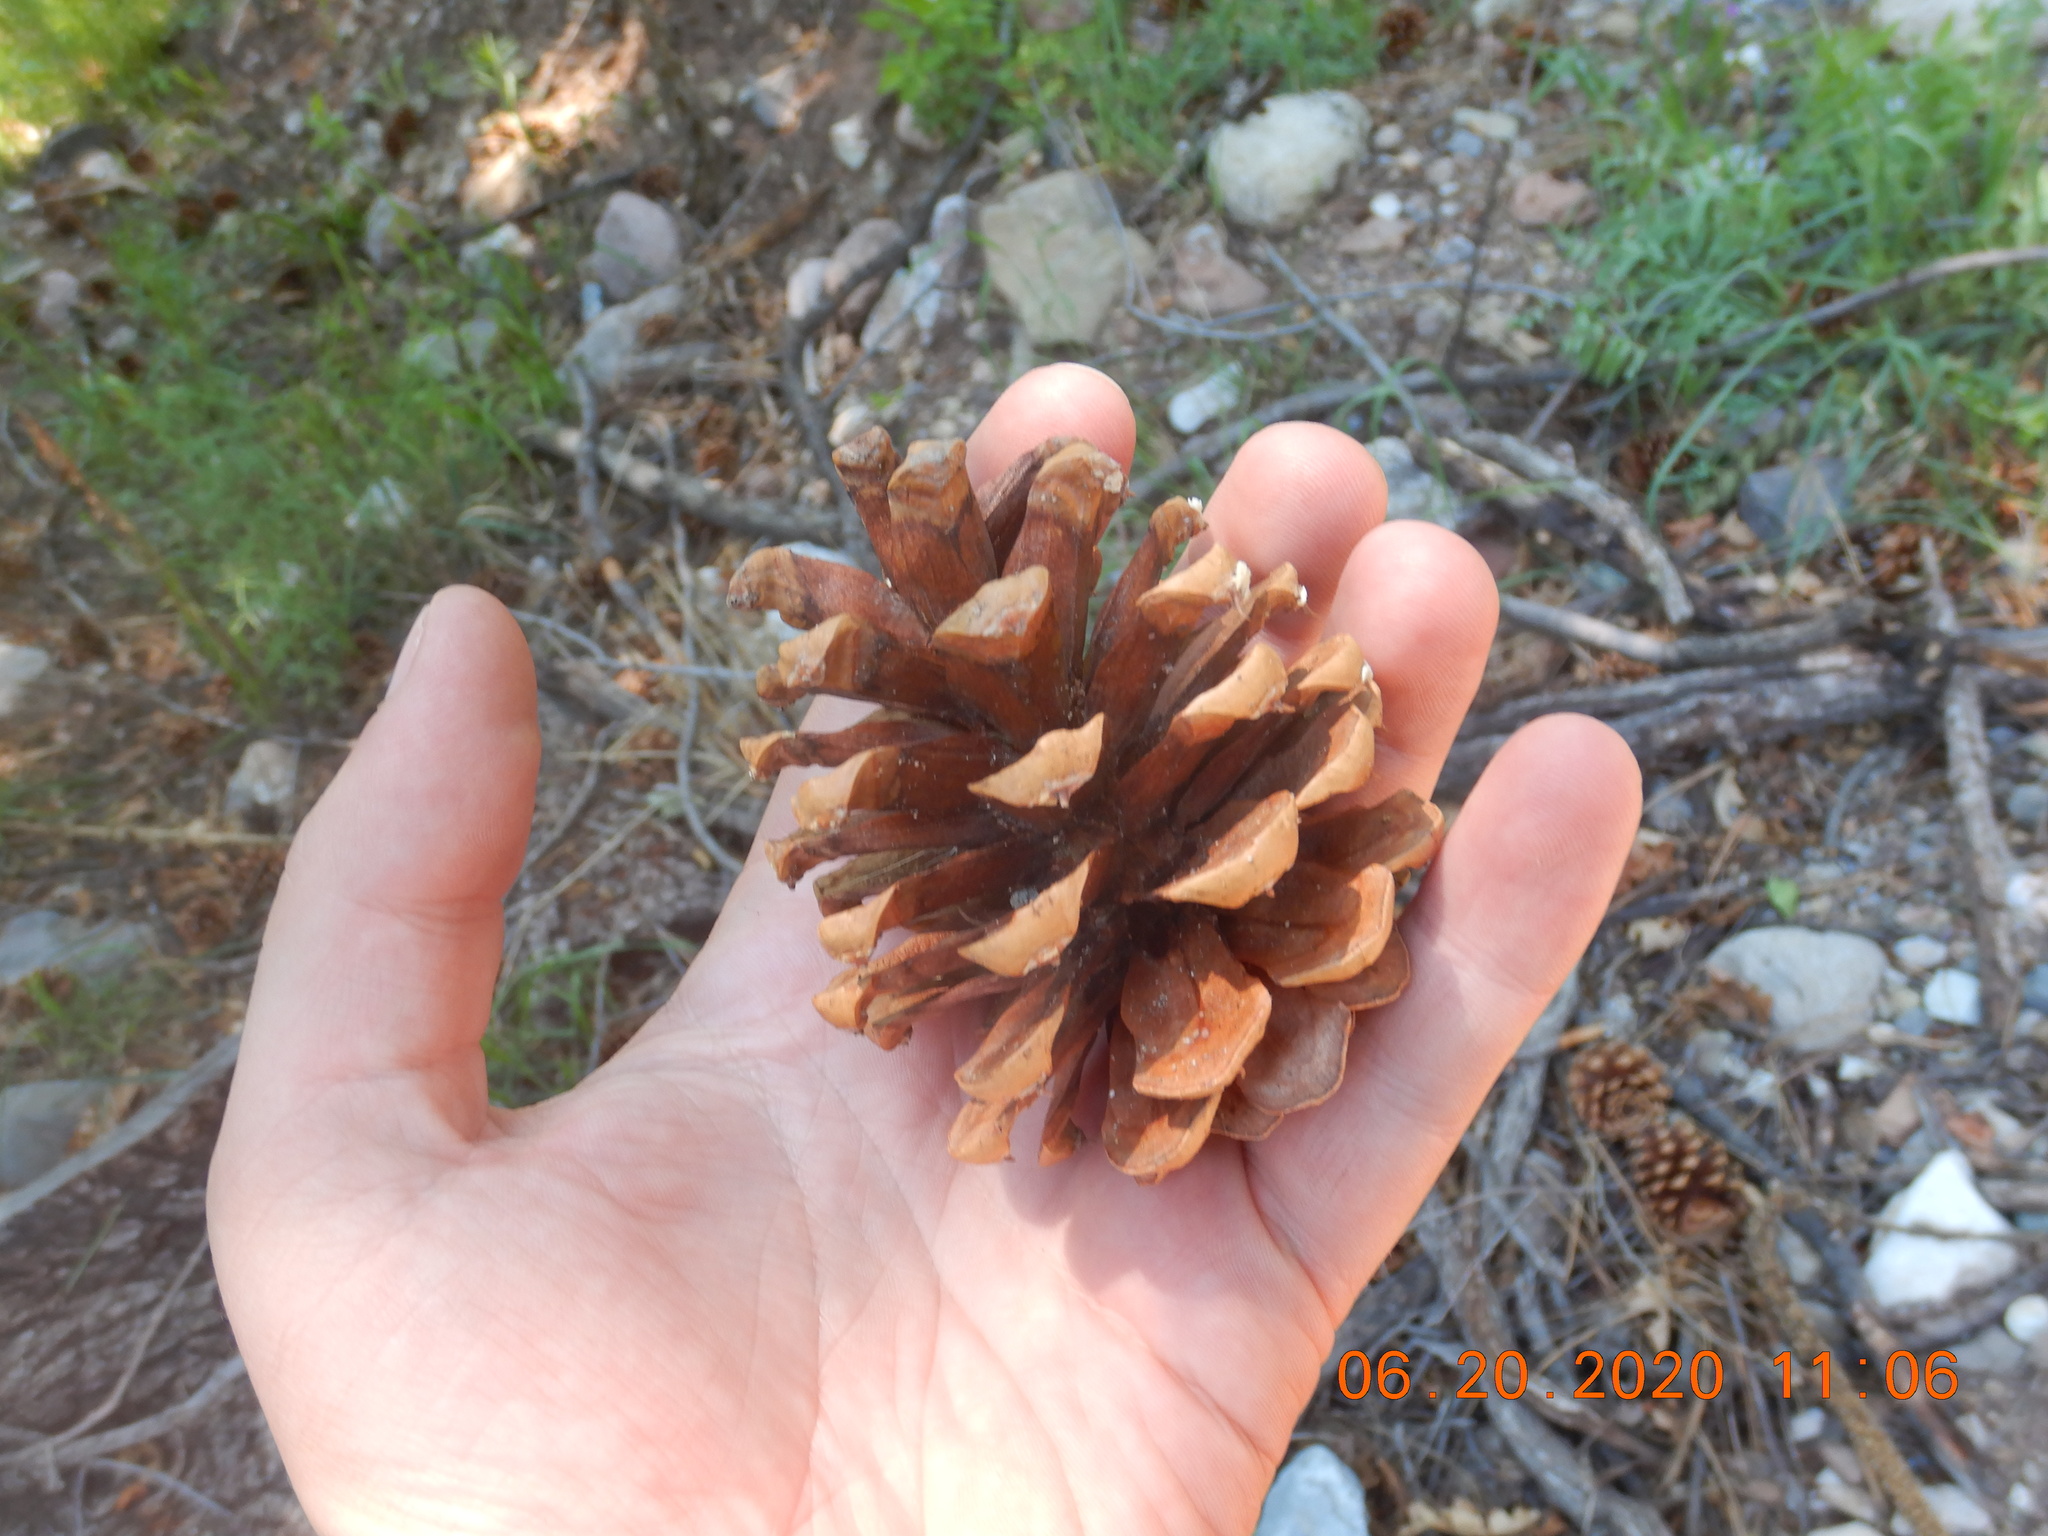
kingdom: Plantae
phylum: Tracheophyta
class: Pinopsida
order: Pinales
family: Pinaceae
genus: Pinus
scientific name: Pinus ponderosa
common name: Western yellow-pine
